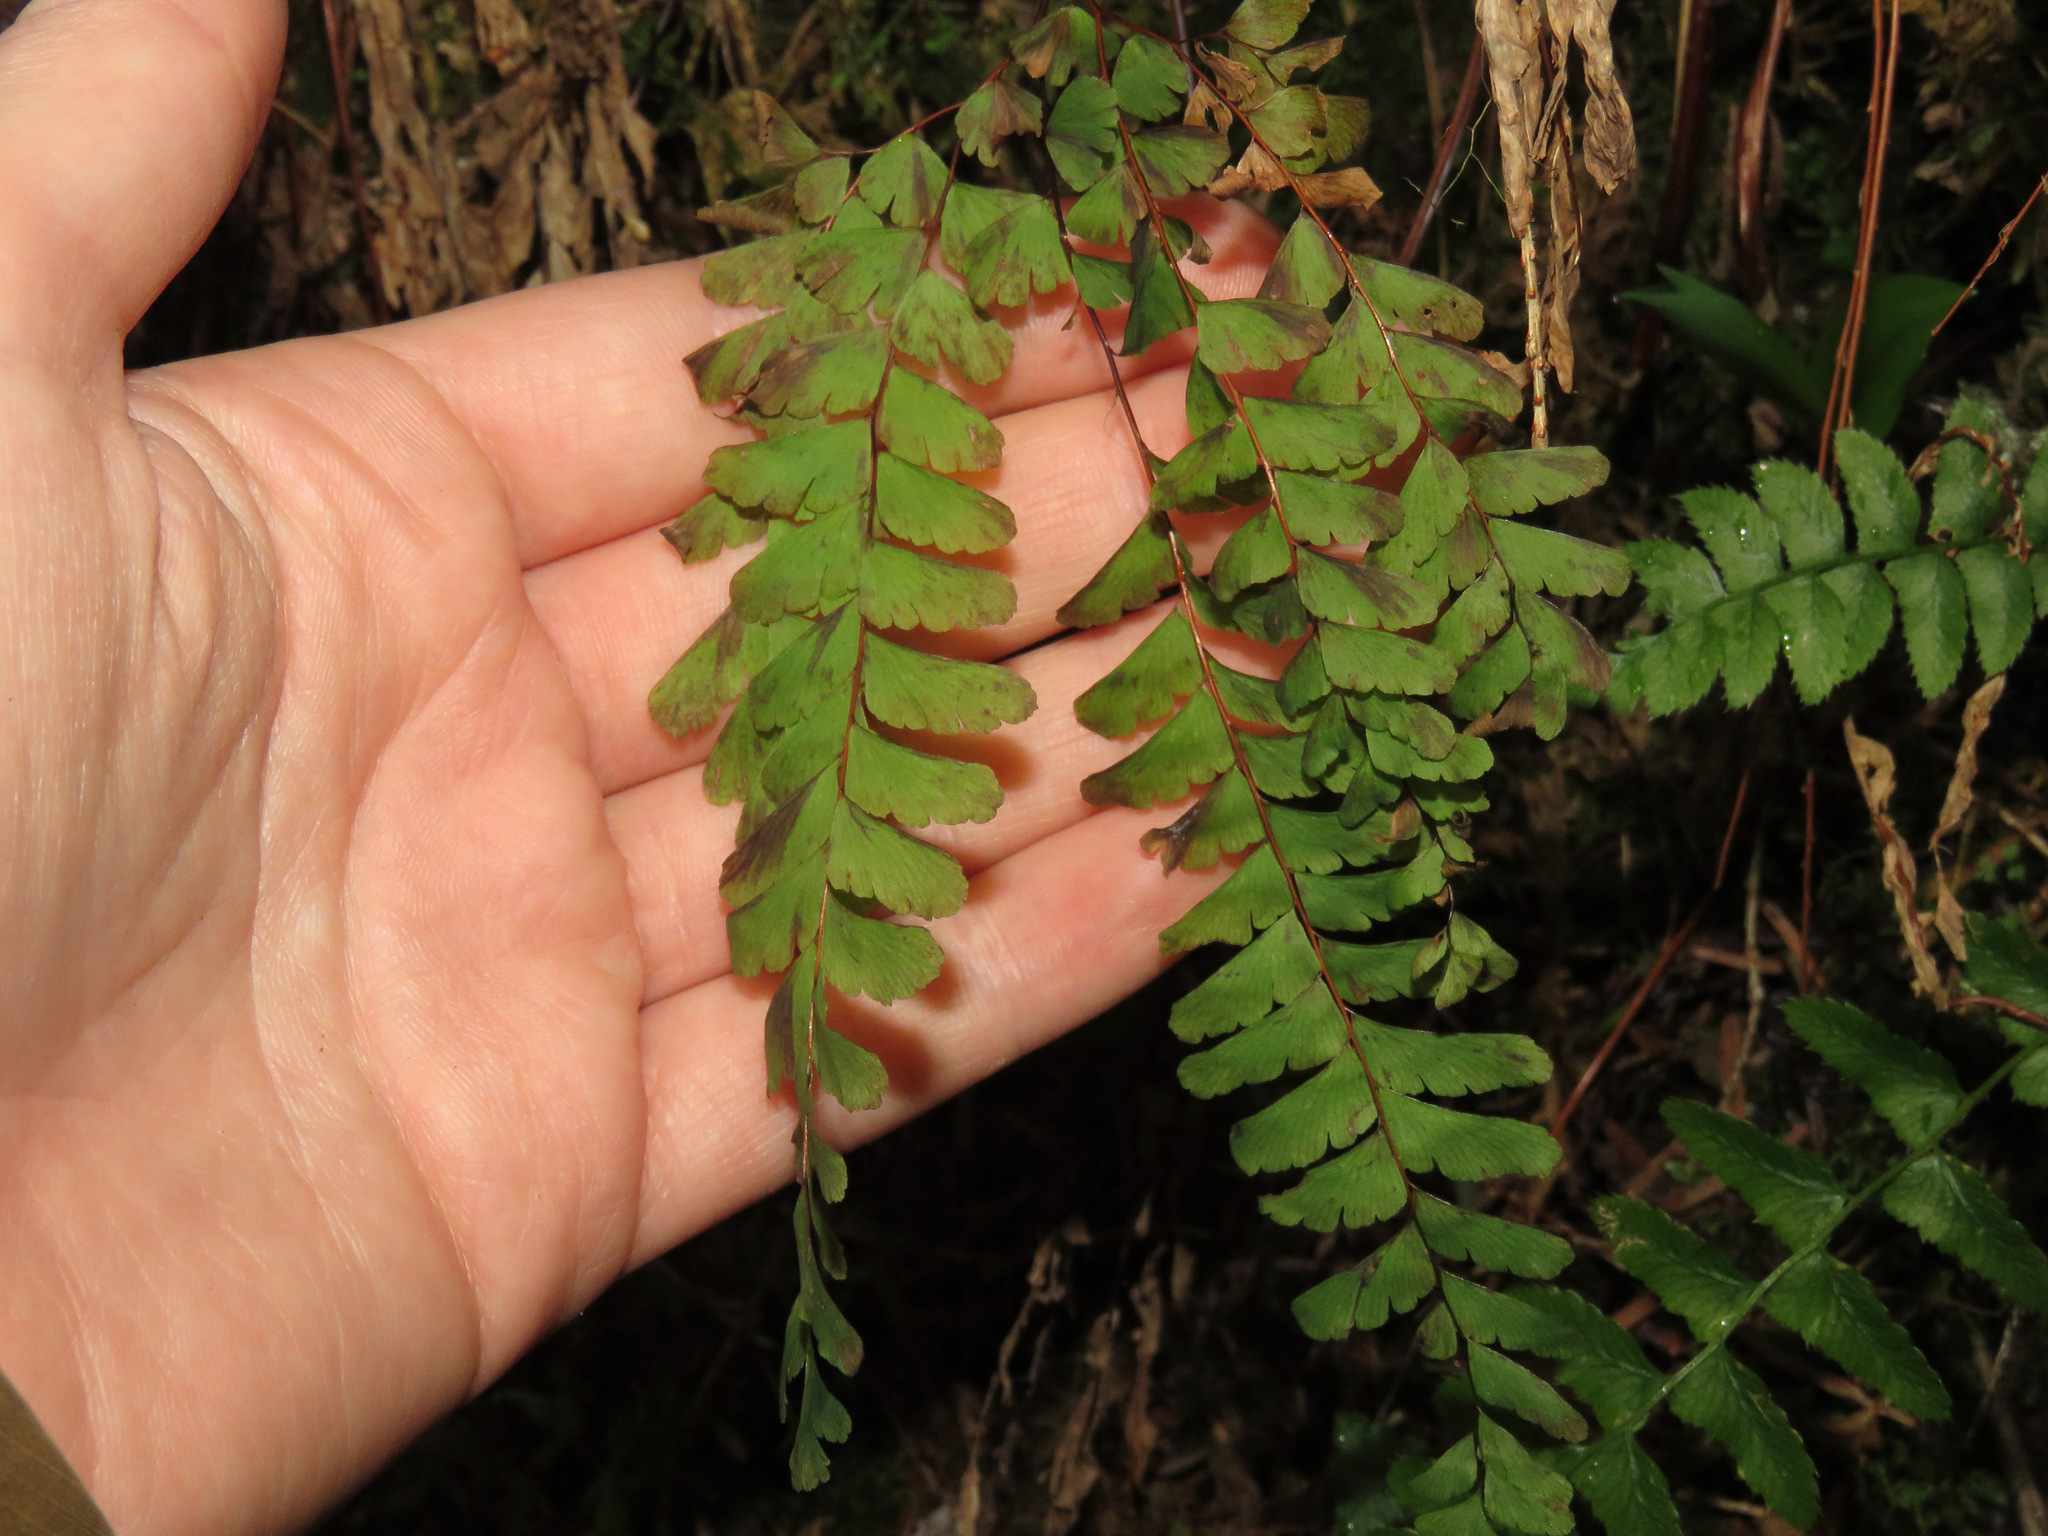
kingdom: Plantae
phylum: Tracheophyta
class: Polypodiopsida
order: Polypodiales
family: Pteridaceae
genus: Adiantum
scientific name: Adiantum aleuticum
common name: Aleutian maidenhair fern
